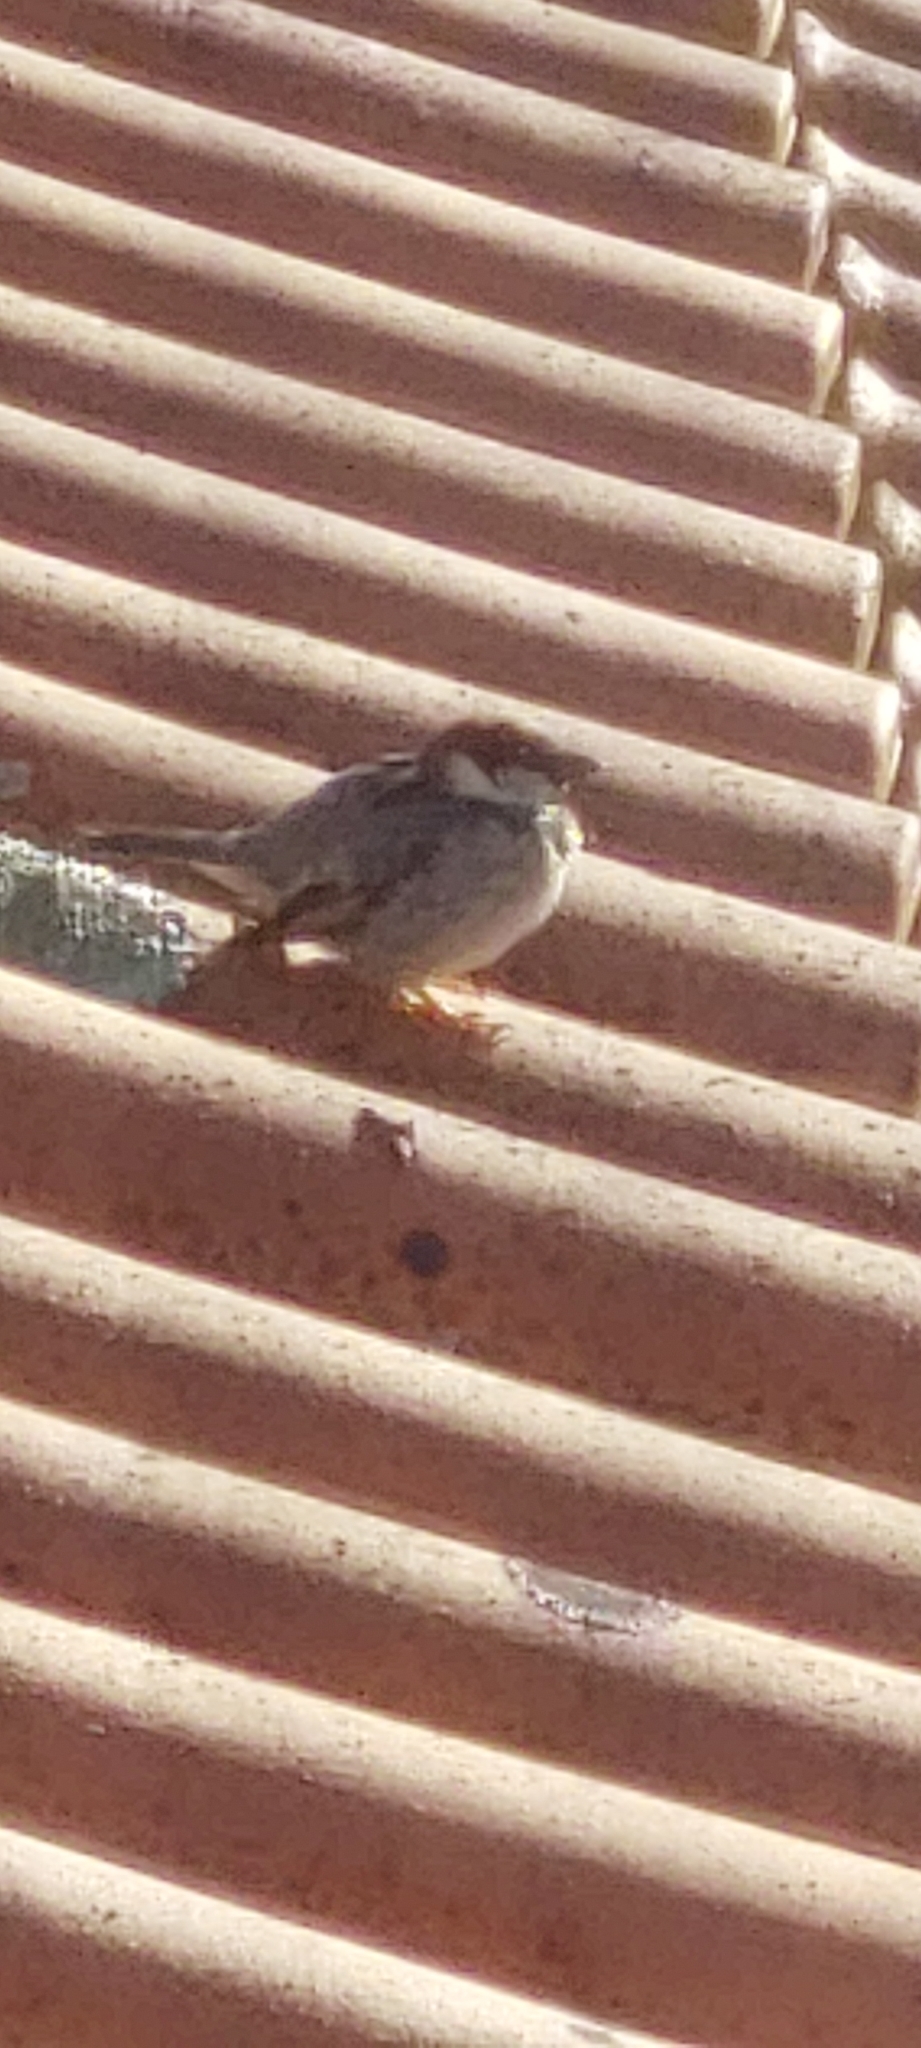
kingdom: Animalia
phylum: Chordata
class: Aves
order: Passeriformes
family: Passeridae
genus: Passer
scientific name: Passer domesticus
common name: House sparrow
